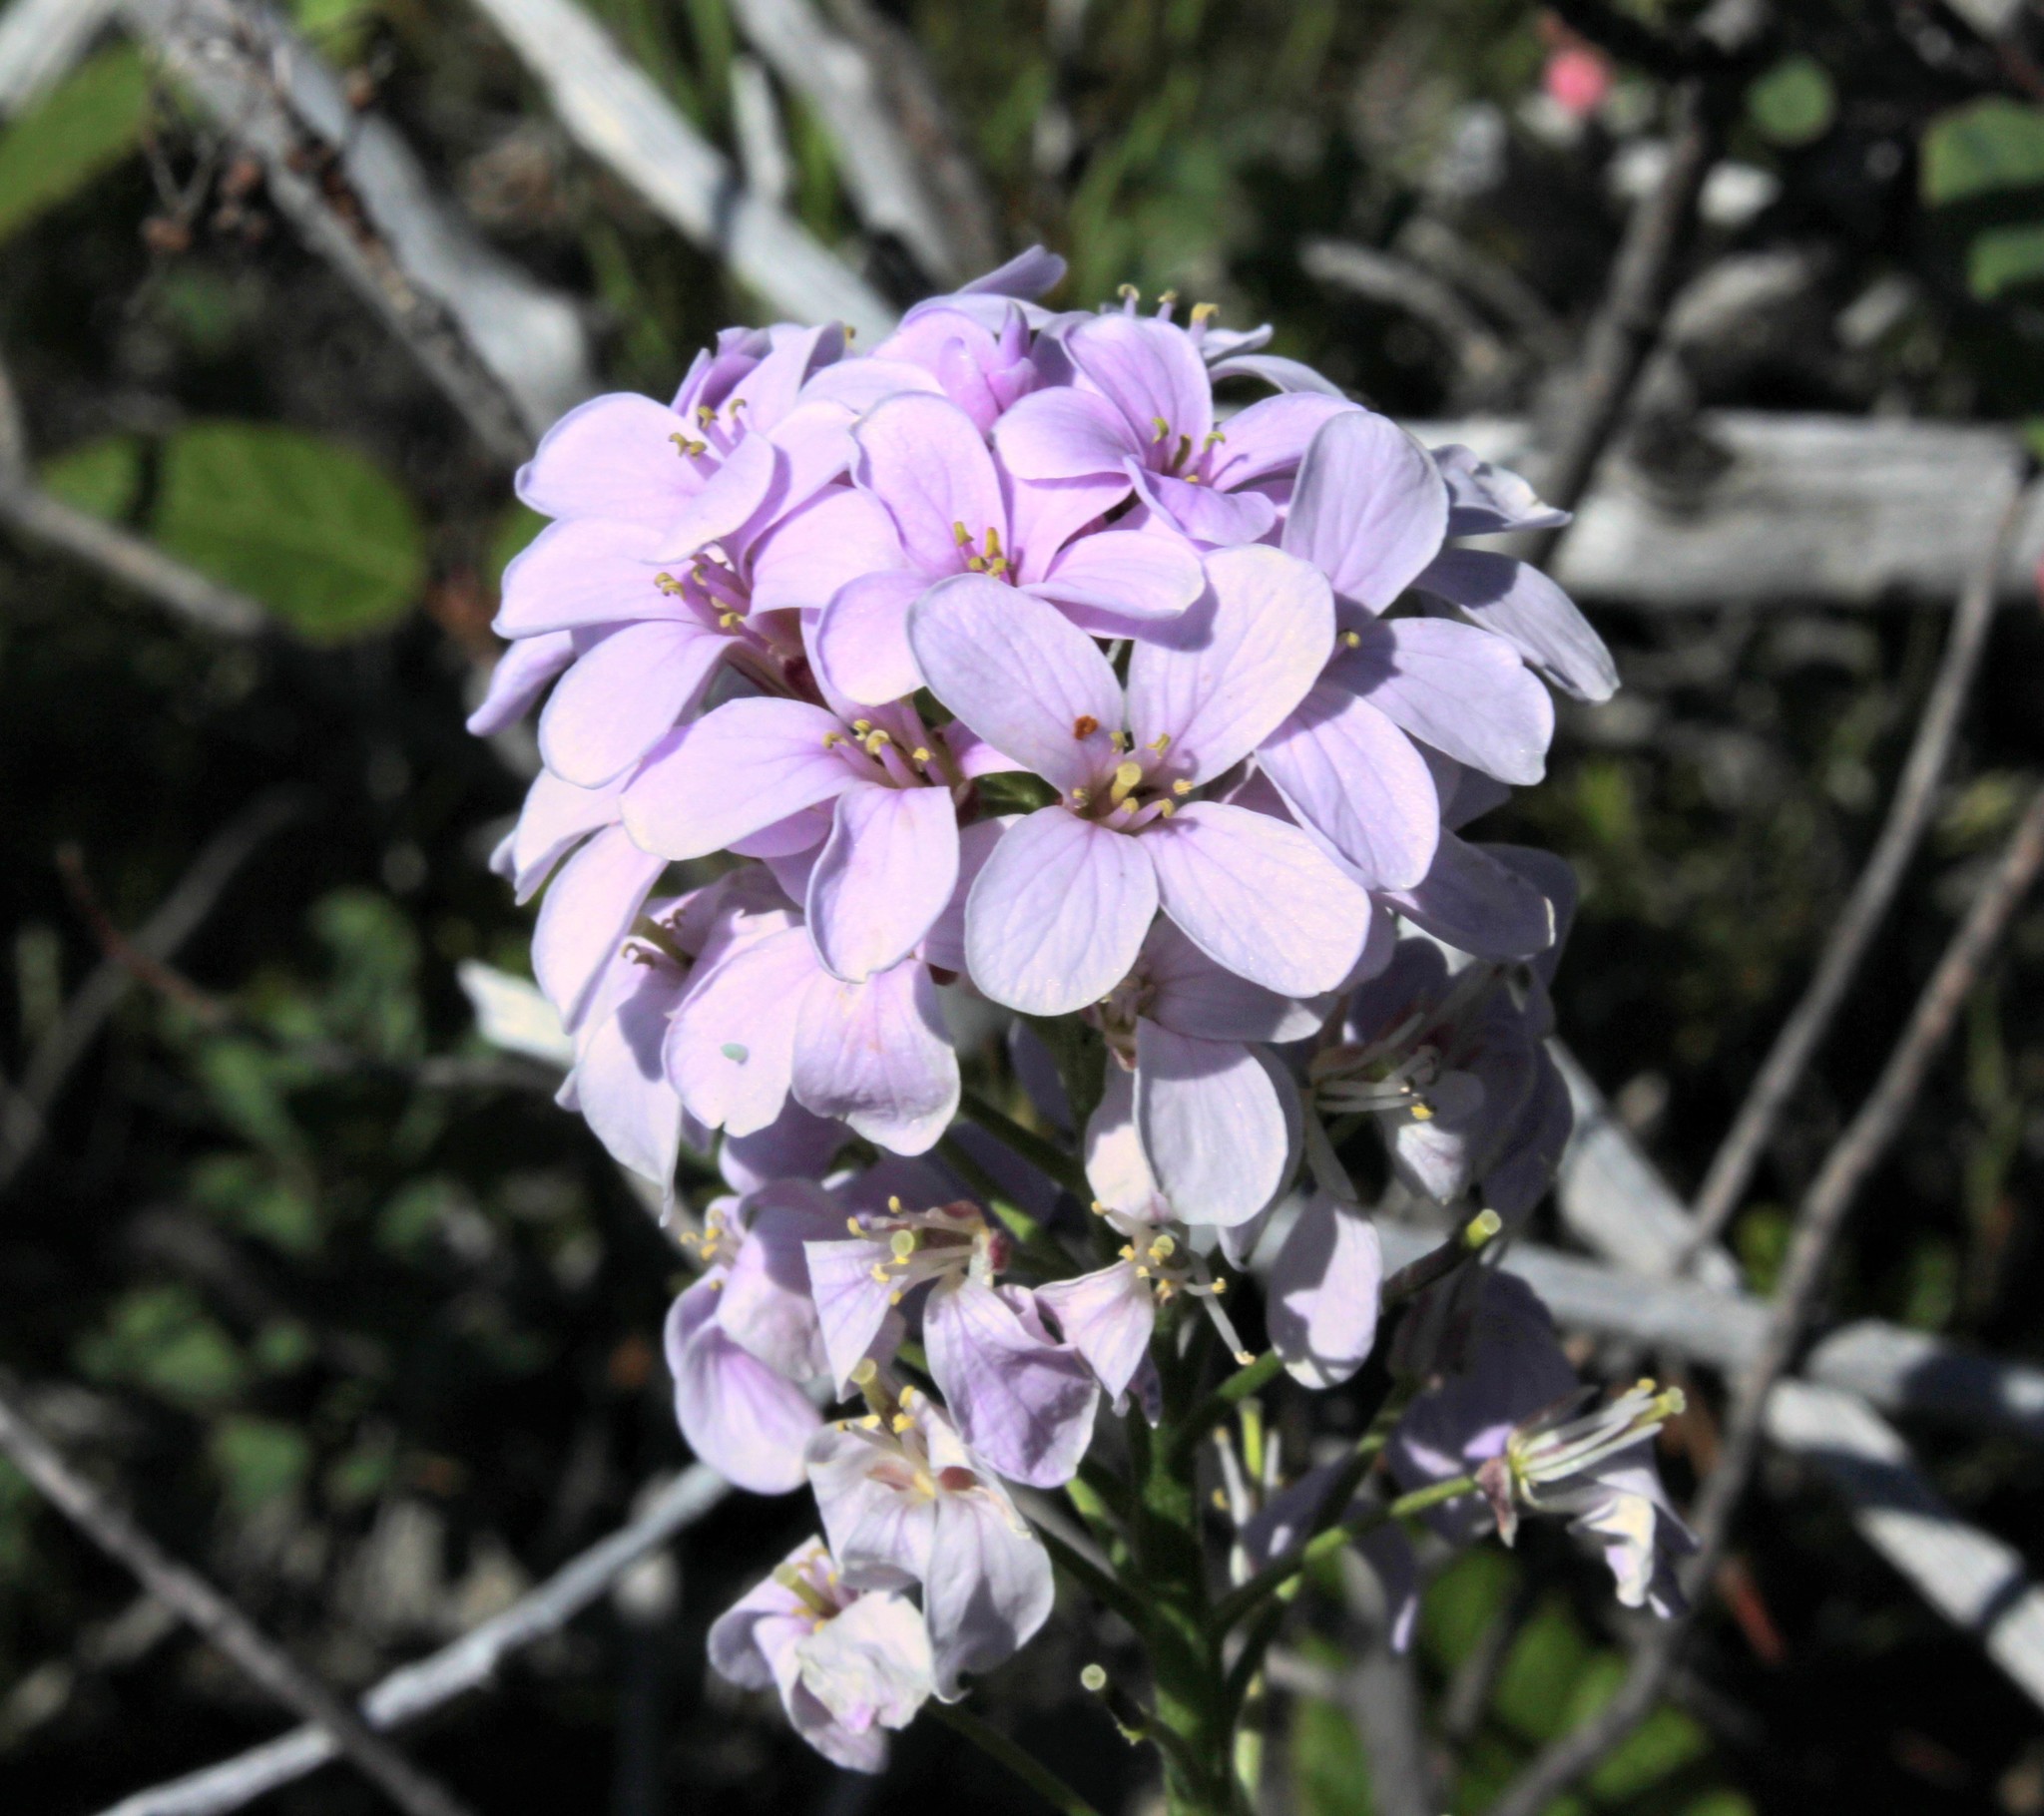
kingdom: Plantae
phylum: Tracheophyta
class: Magnoliopsida
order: Brassicales
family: Brassicaceae
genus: Cardamine
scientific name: Cardamine macrophylla
